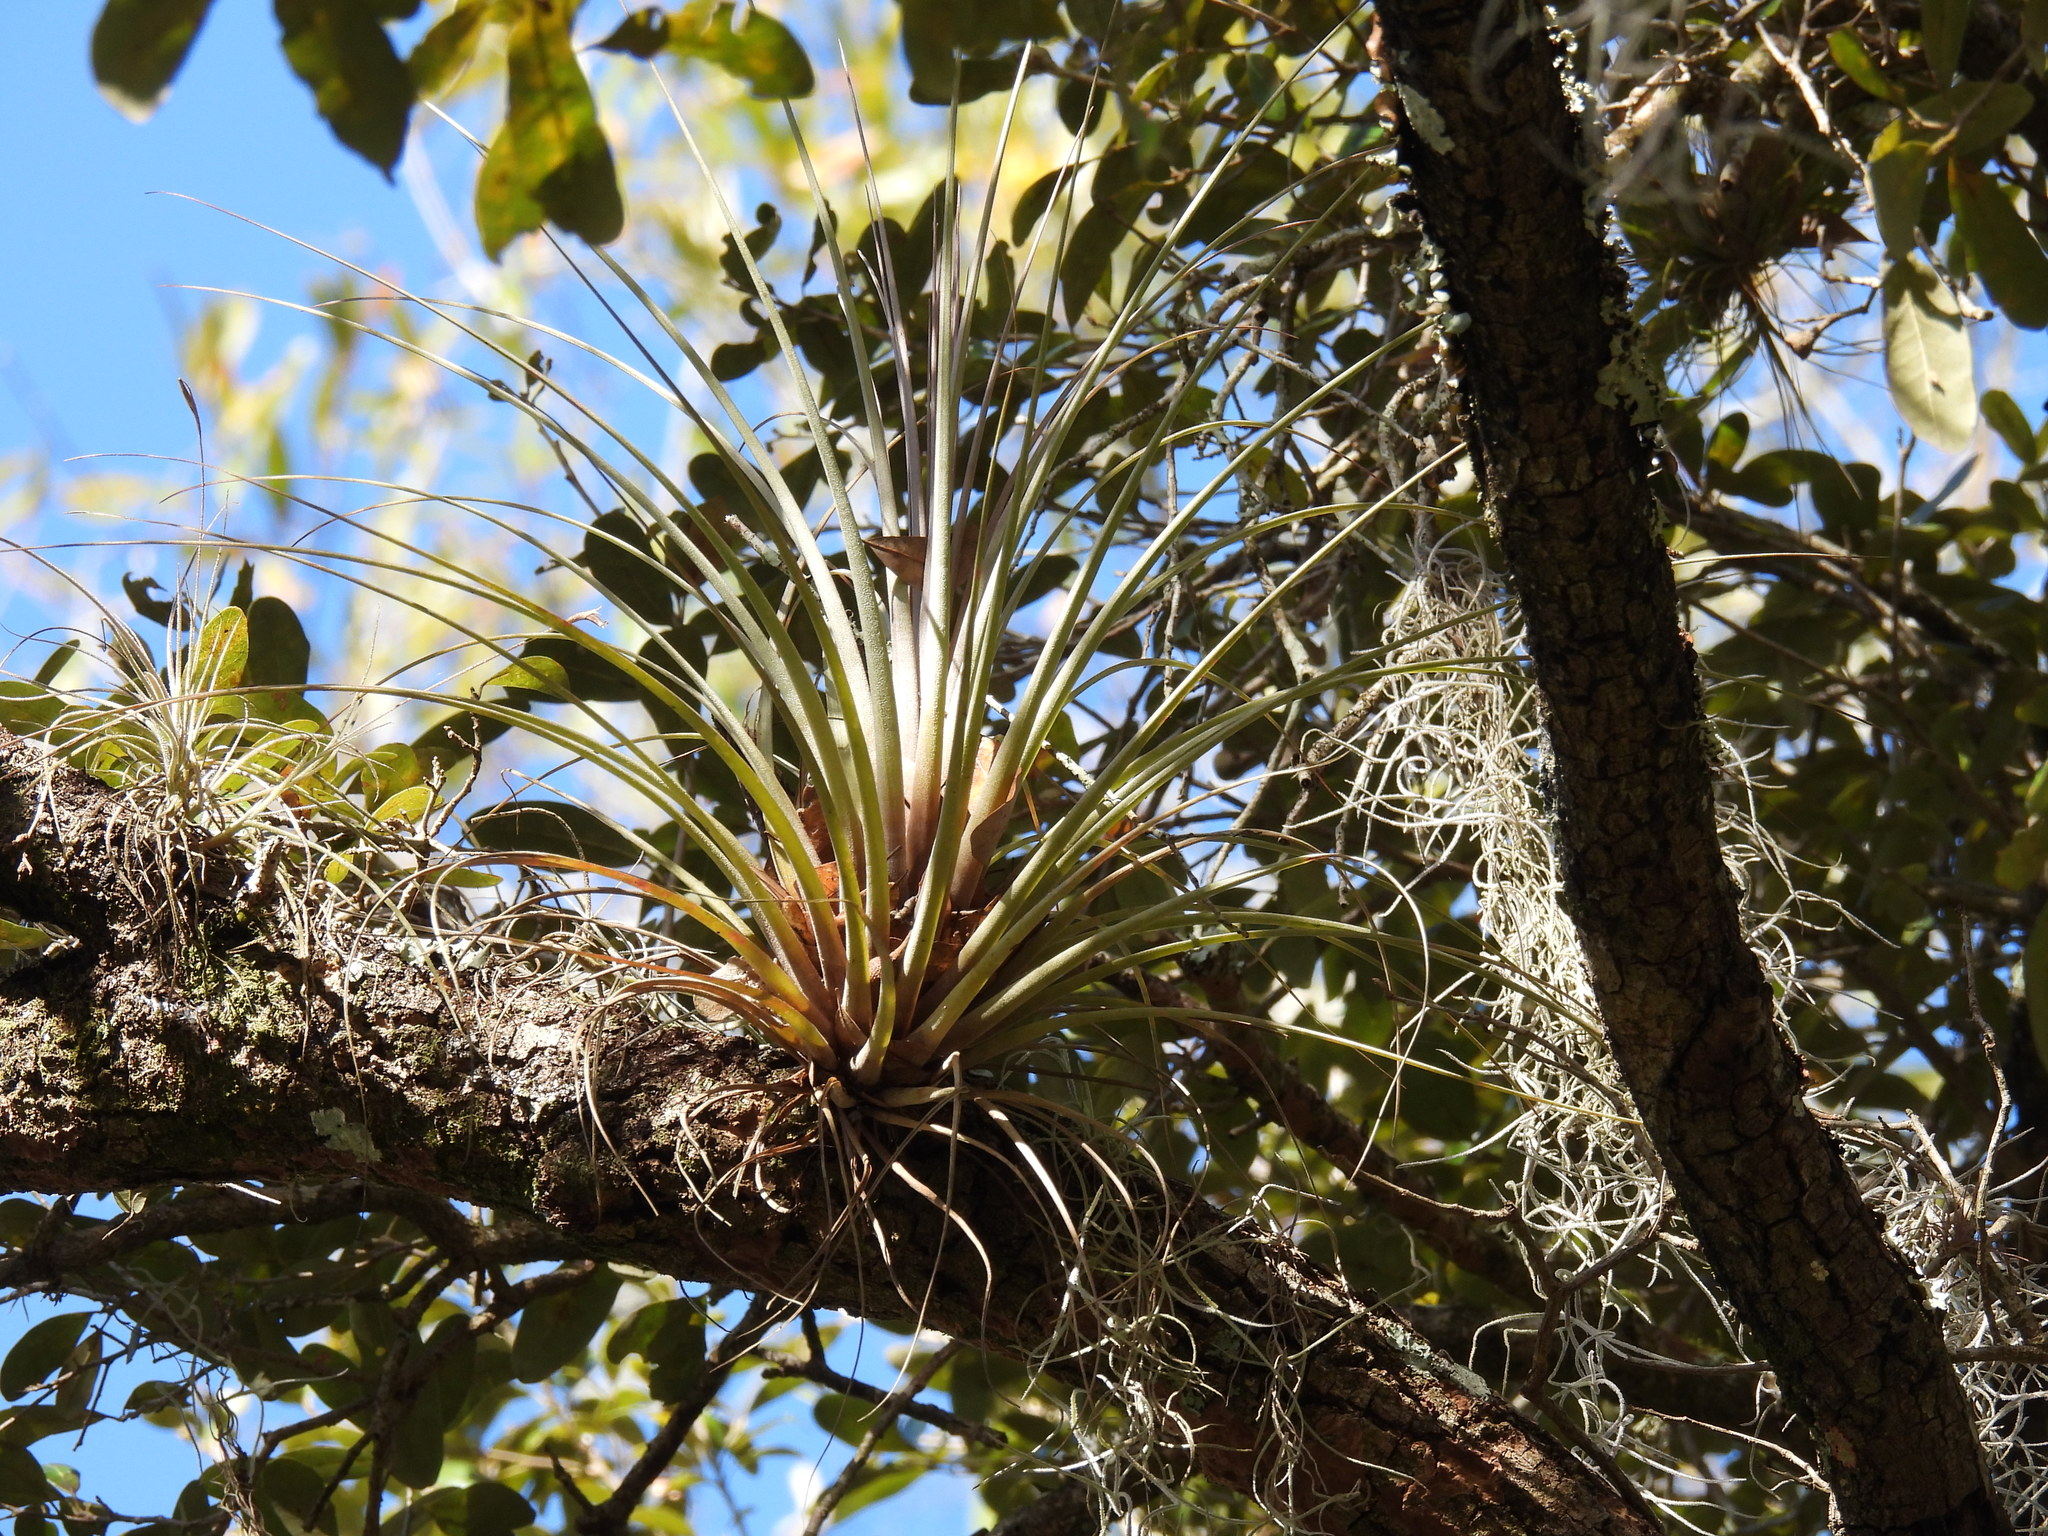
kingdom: Plantae
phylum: Tracheophyta
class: Liliopsida
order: Poales
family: Bromeliaceae
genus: Tillandsia
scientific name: Tillandsia fasciculata
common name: Giant airplant
